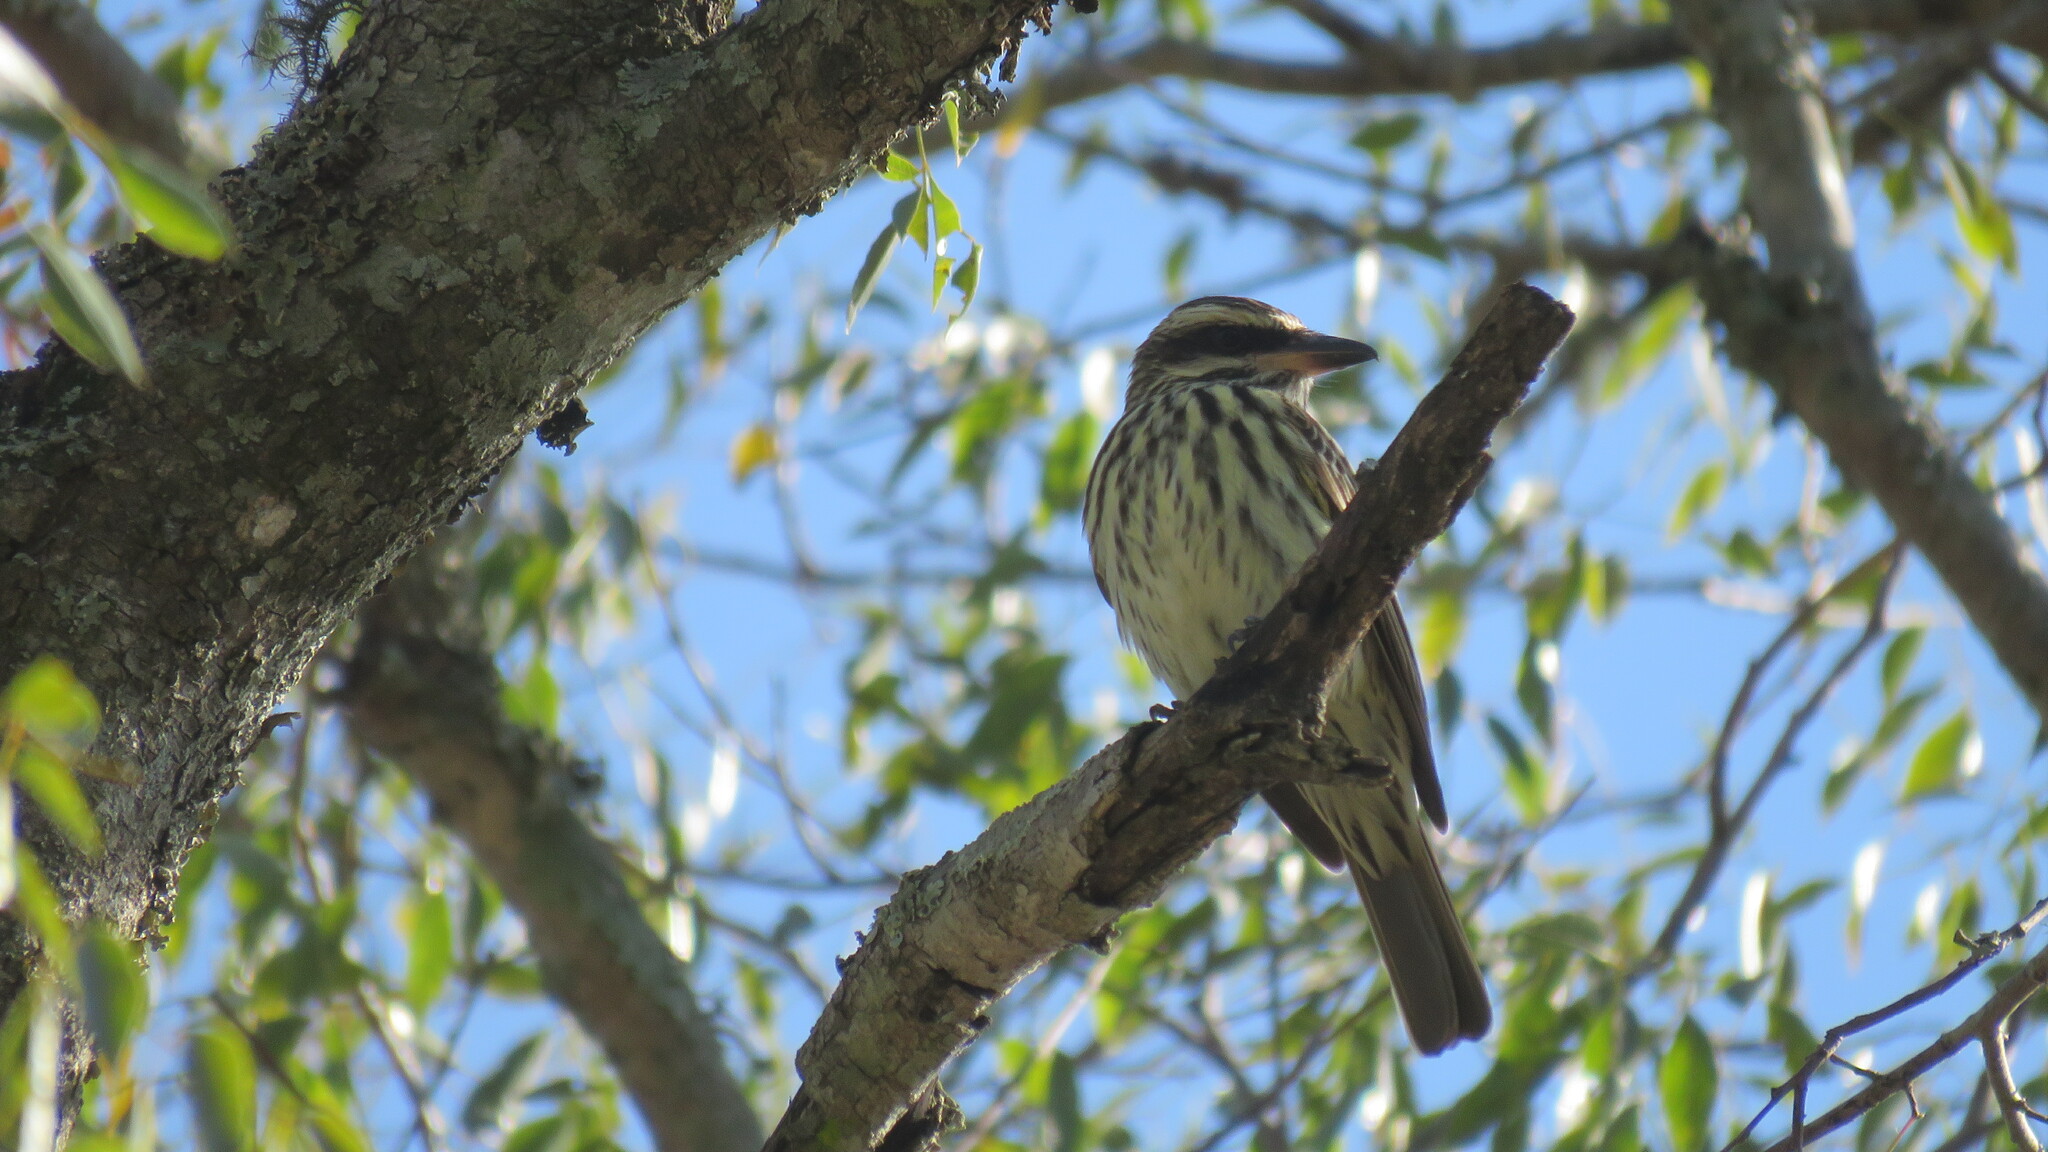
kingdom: Animalia
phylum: Chordata
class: Aves
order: Passeriformes
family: Tyrannidae
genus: Myiodynastes
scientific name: Myiodynastes maculatus
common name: Streaked flycatcher
